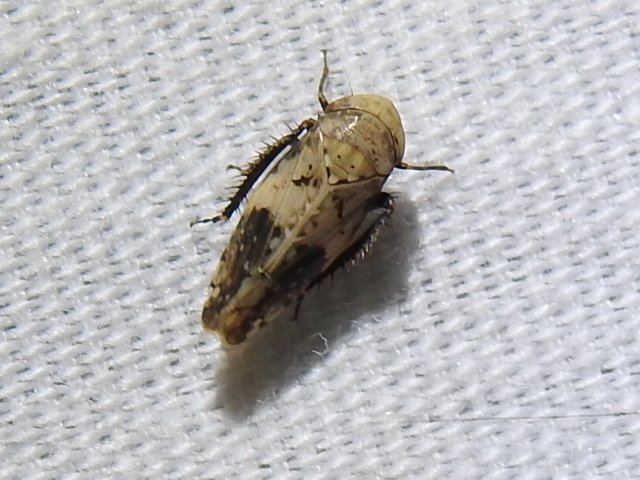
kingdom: Animalia
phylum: Arthropoda
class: Insecta
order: Hemiptera
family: Cicadellidae
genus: Menosoma
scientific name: Menosoma cinctum
